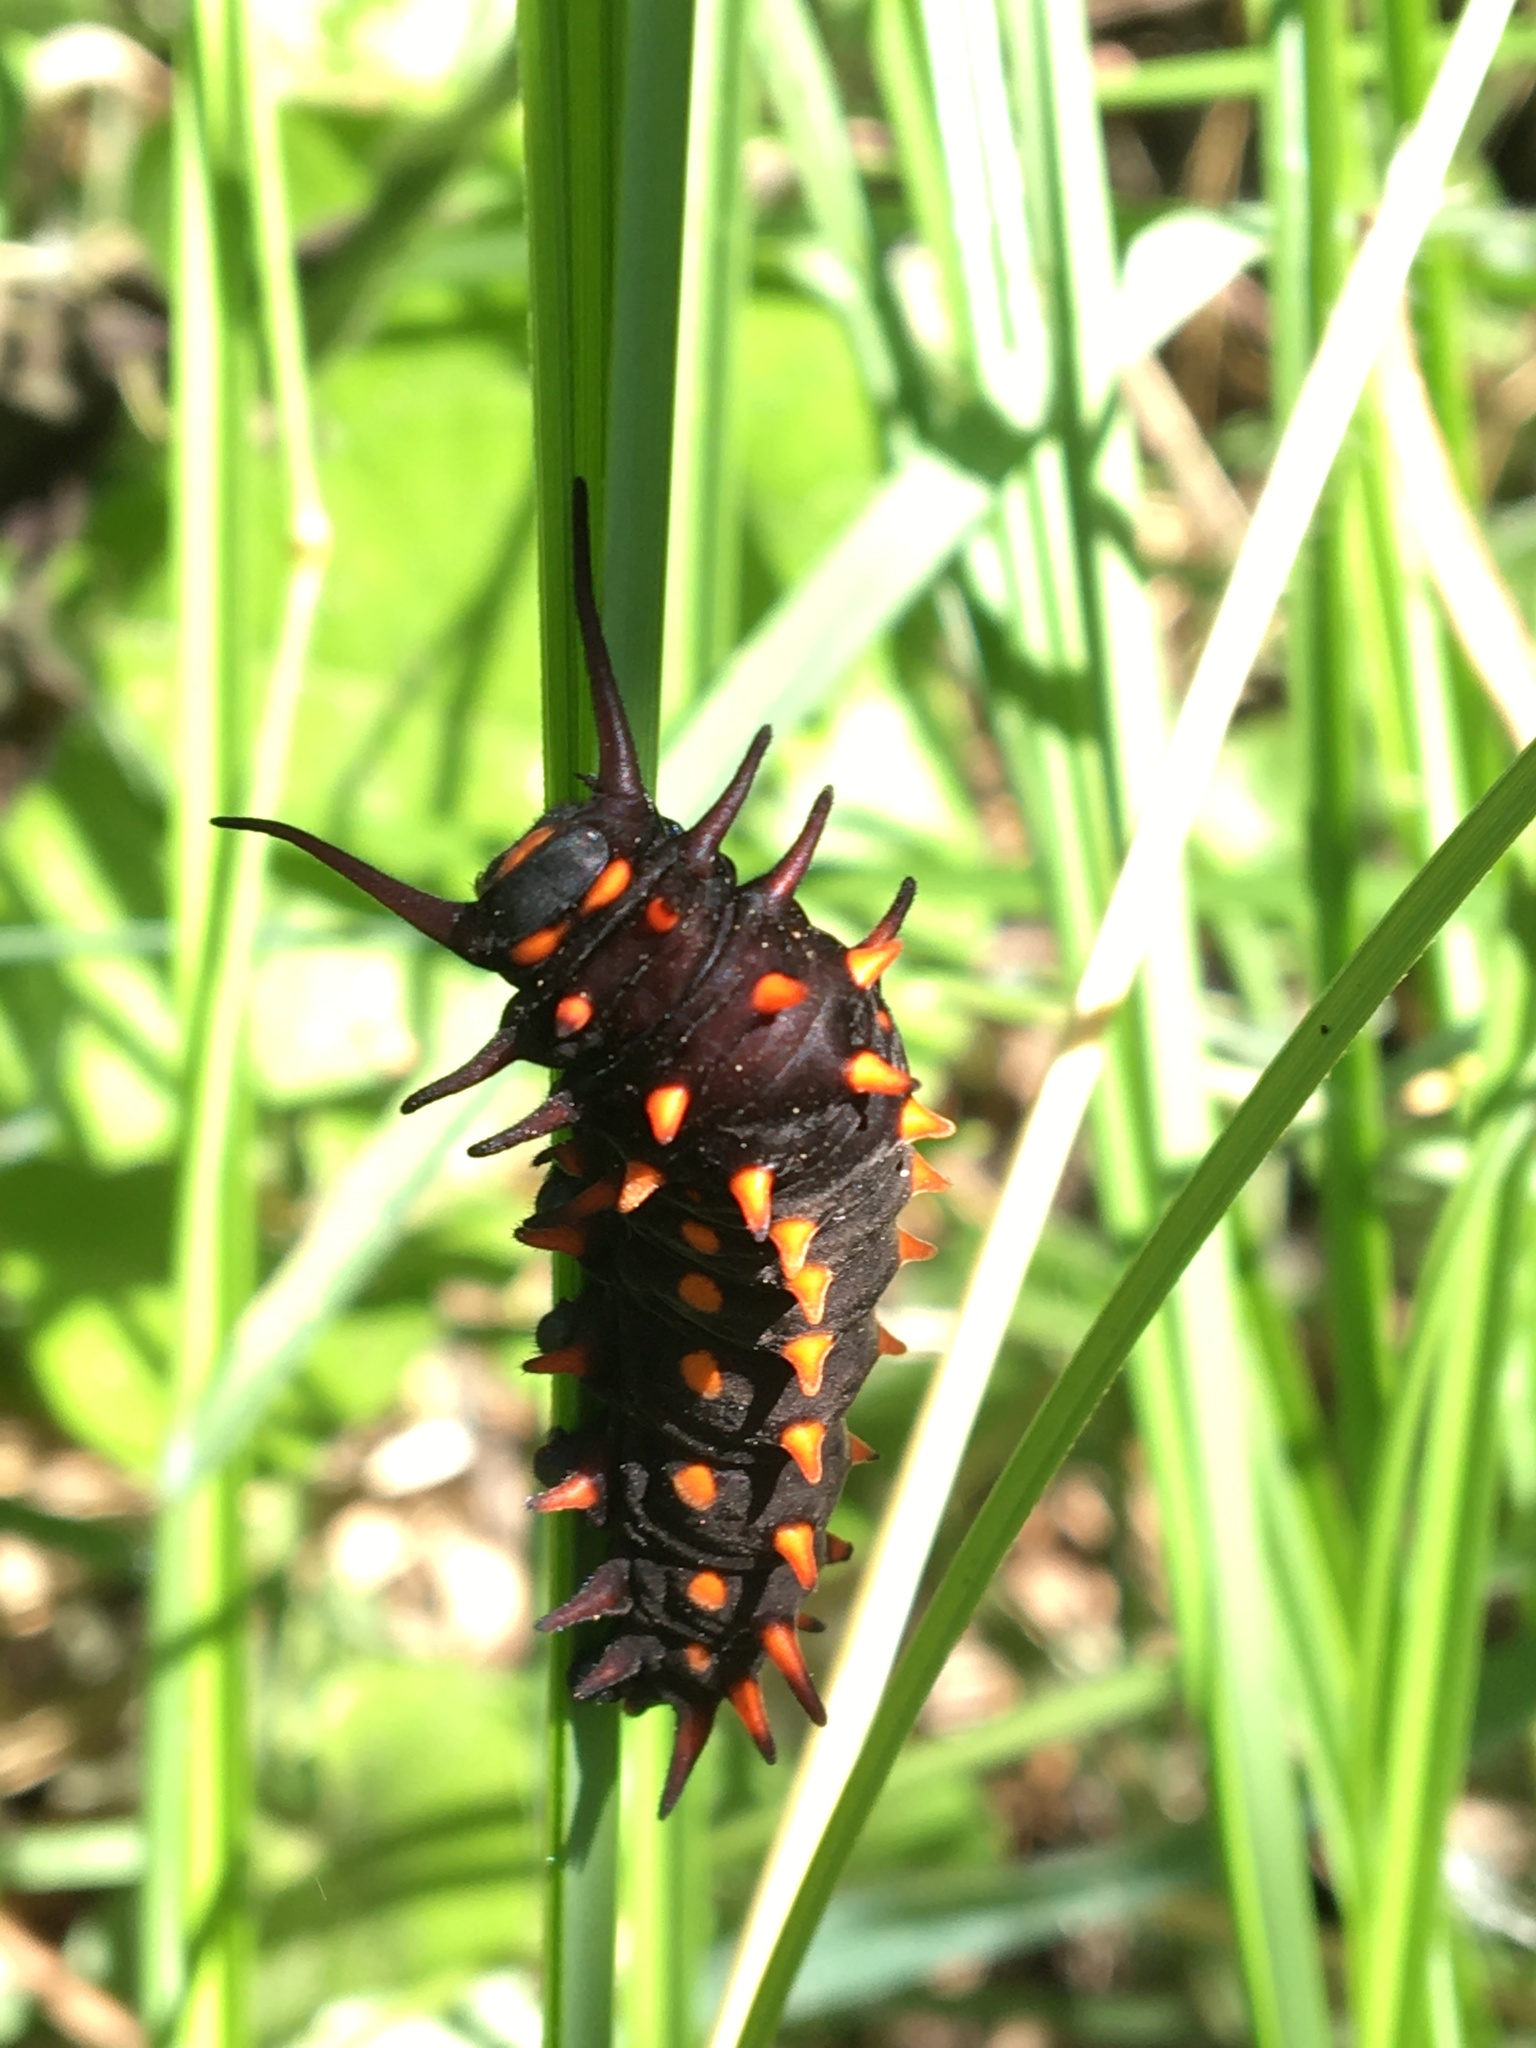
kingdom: Animalia
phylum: Arthropoda
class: Insecta
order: Lepidoptera
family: Papilionidae
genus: Battus
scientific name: Battus philenor
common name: Pipevine swallowtail
